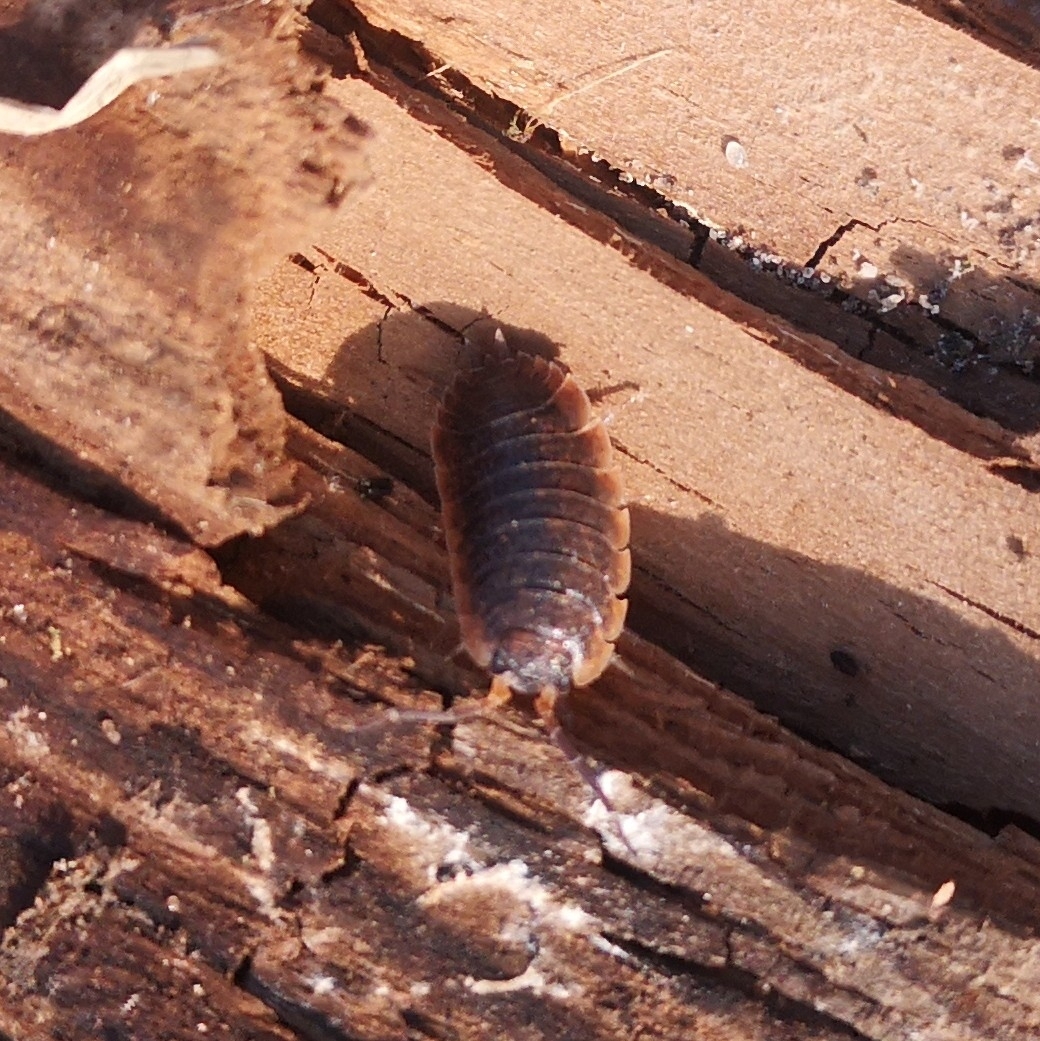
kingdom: Animalia
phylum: Arthropoda
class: Malacostraca
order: Isopoda
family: Porcellionidae
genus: Porcellio
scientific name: Porcellio scaber
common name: Common rough woodlouse
